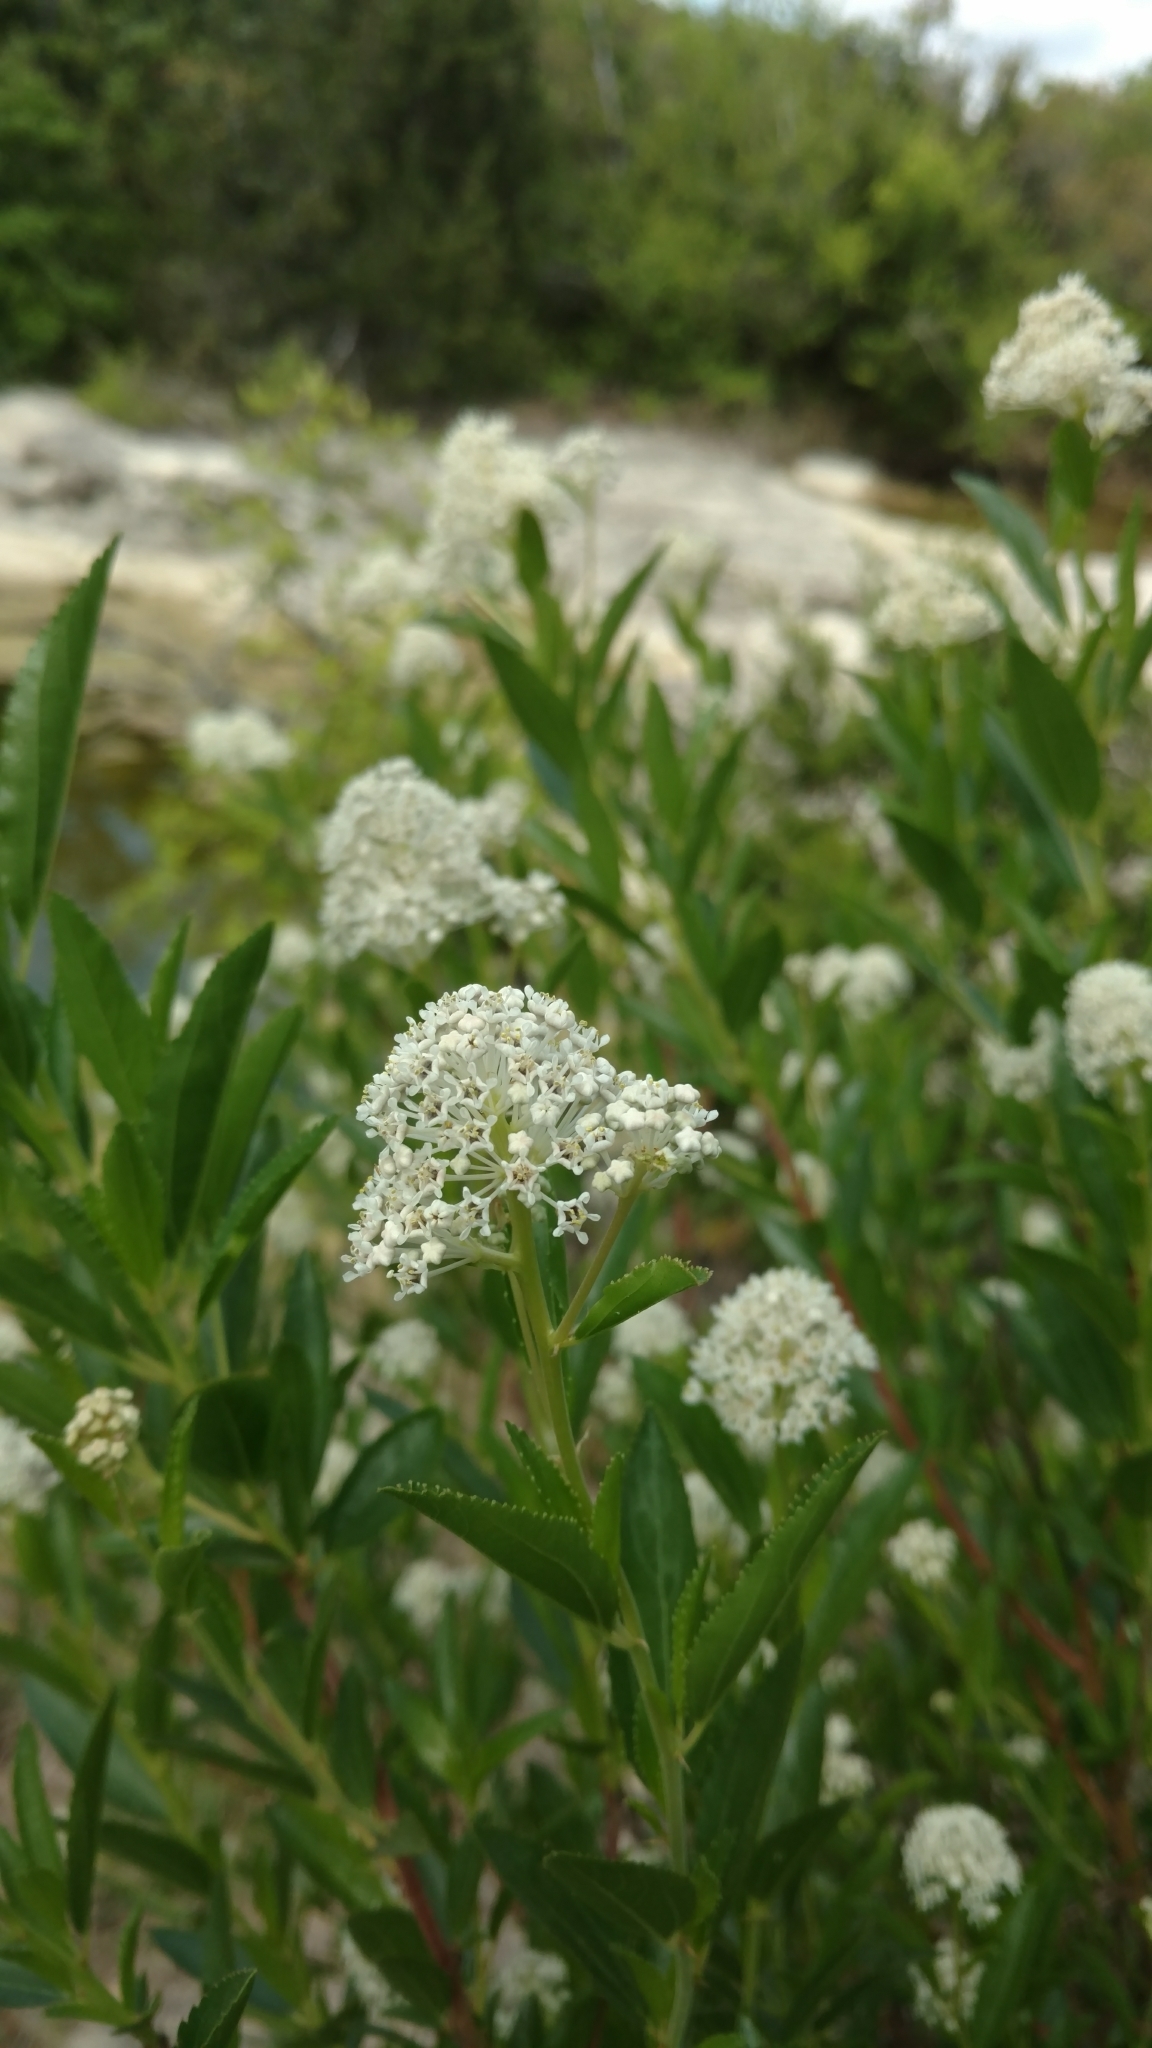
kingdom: Plantae
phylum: Tracheophyta
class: Magnoliopsida
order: Rosales
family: Rhamnaceae
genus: Ceanothus
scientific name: Ceanothus herbaceus
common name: Inland ceanothus
